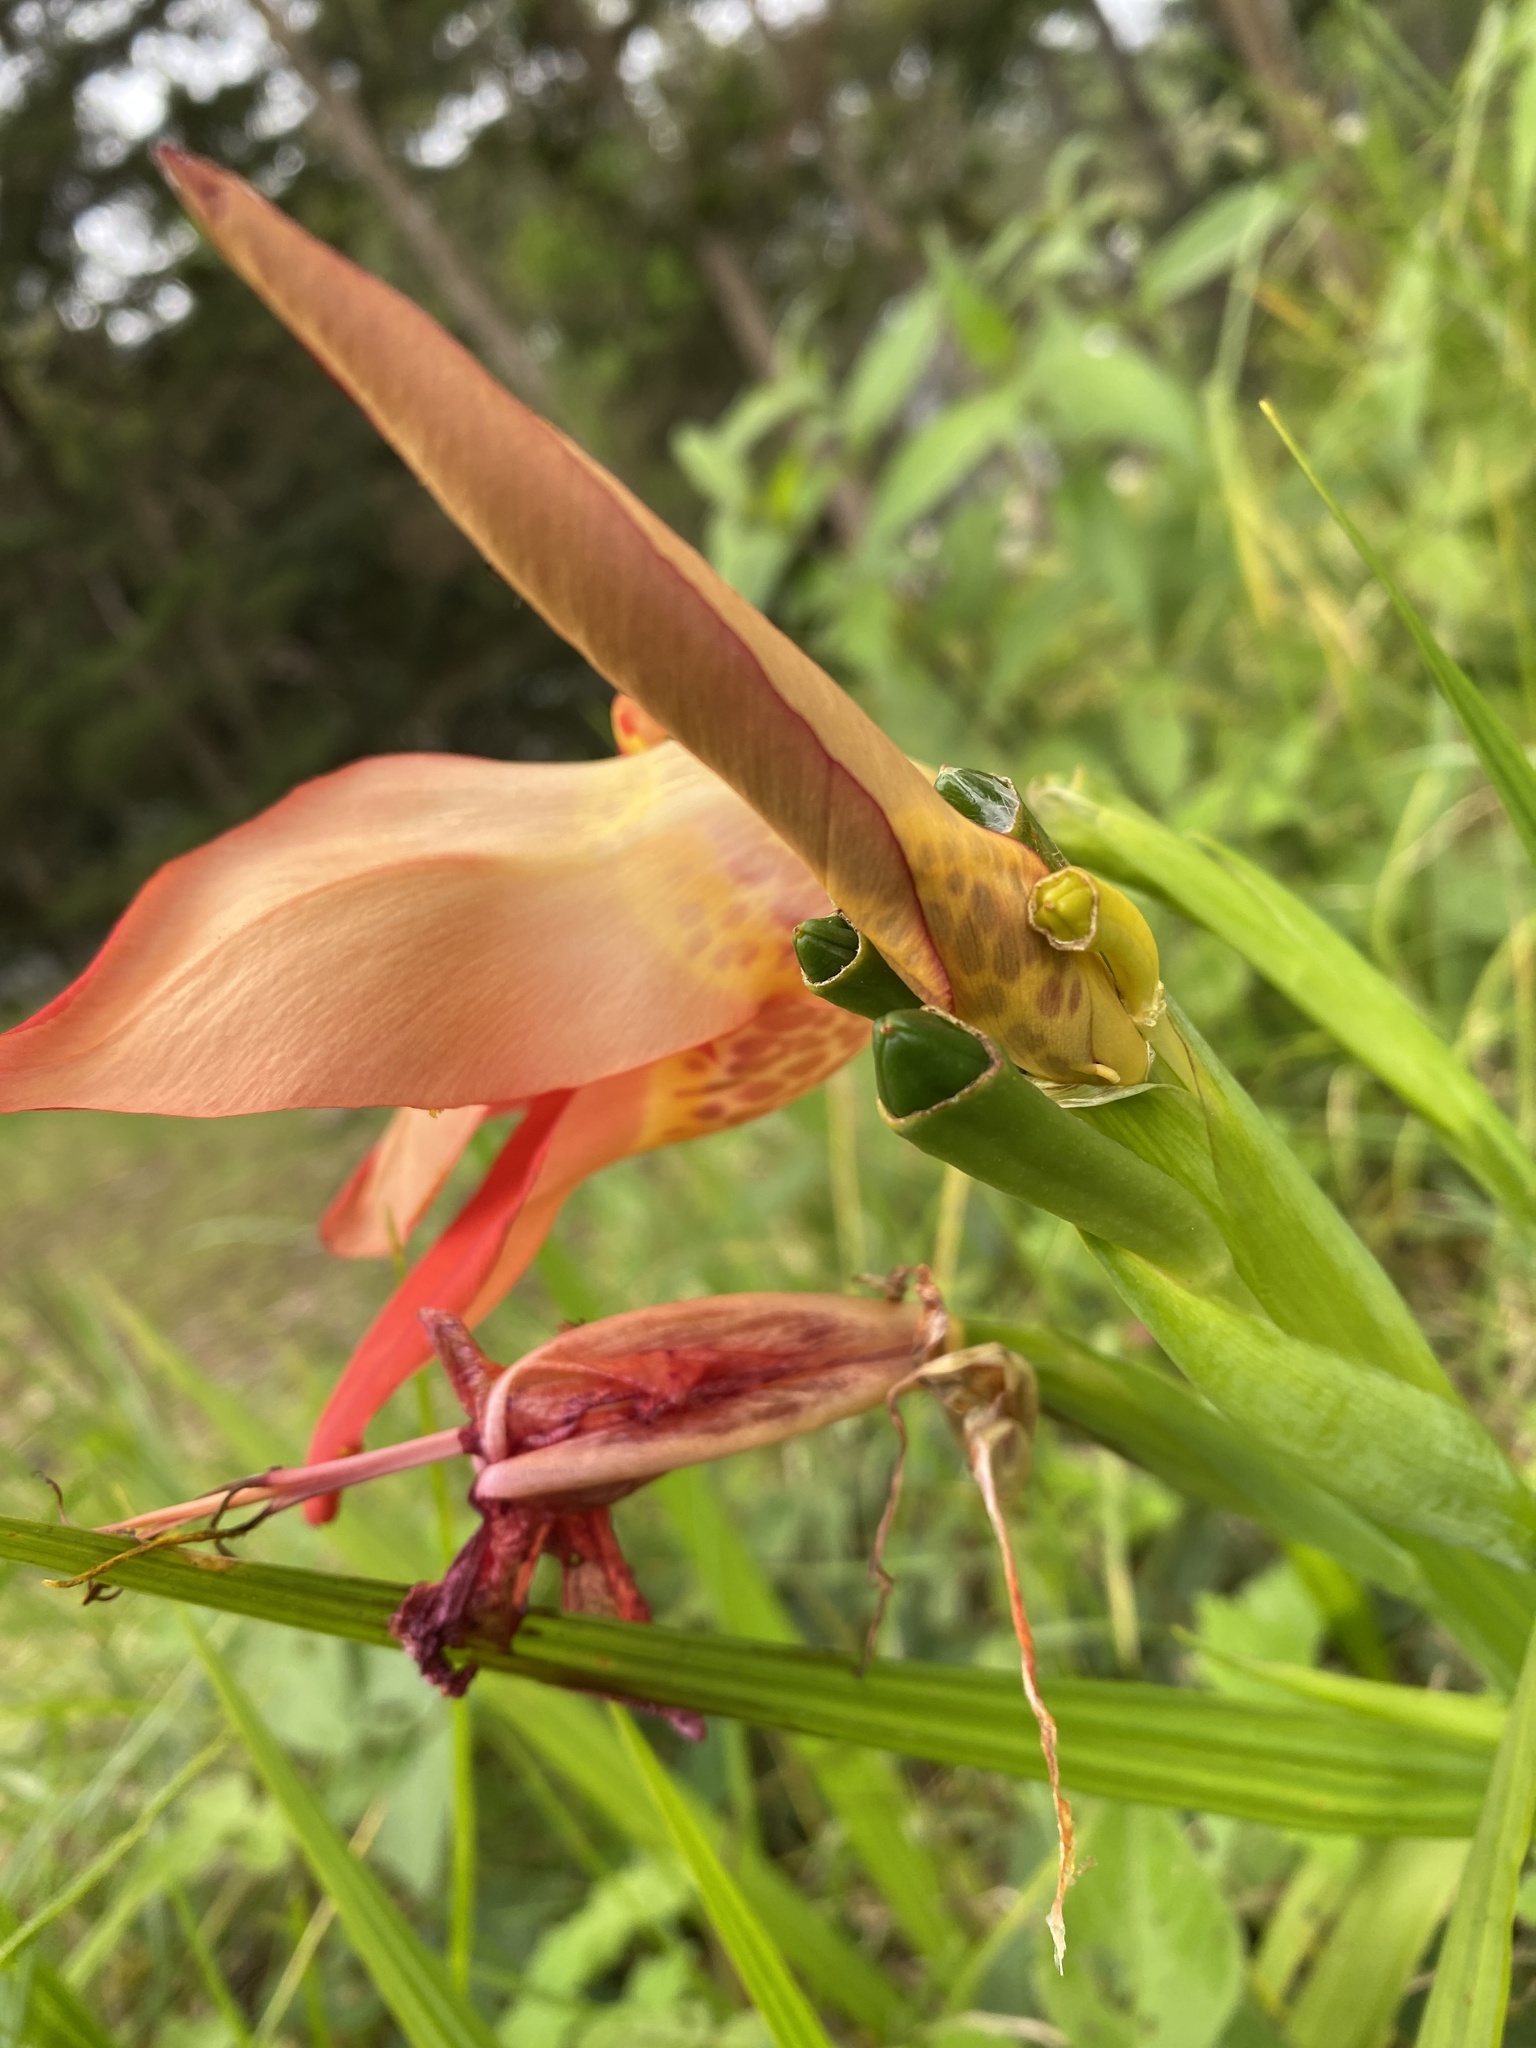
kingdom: Plantae
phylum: Tracheophyta
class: Liliopsida
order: Asparagales
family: Iridaceae
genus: Tigridia
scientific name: Tigridia pavonia
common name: Peacock-flower
